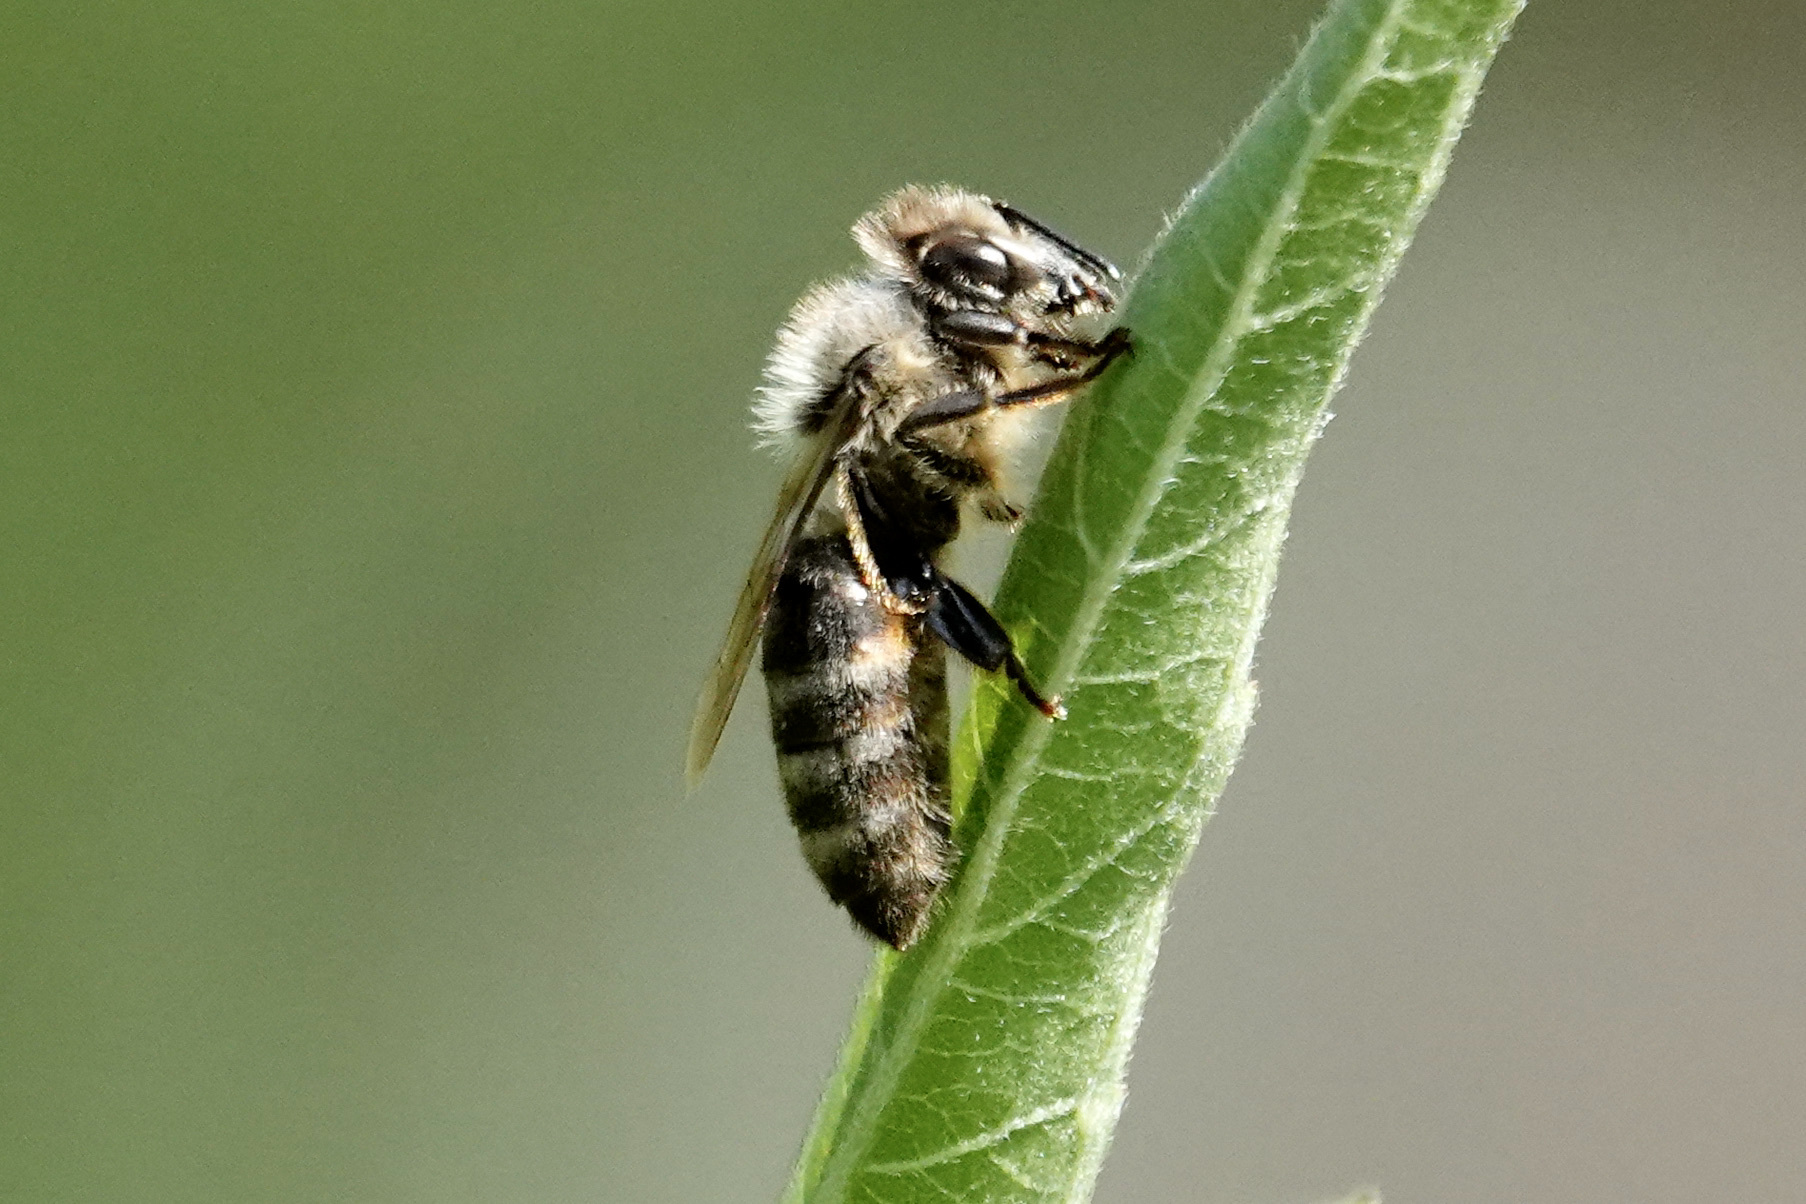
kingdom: Animalia
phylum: Arthropoda
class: Insecta
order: Hymenoptera
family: Apidae
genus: Apis
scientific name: Apis mellifera
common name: Honey bee
